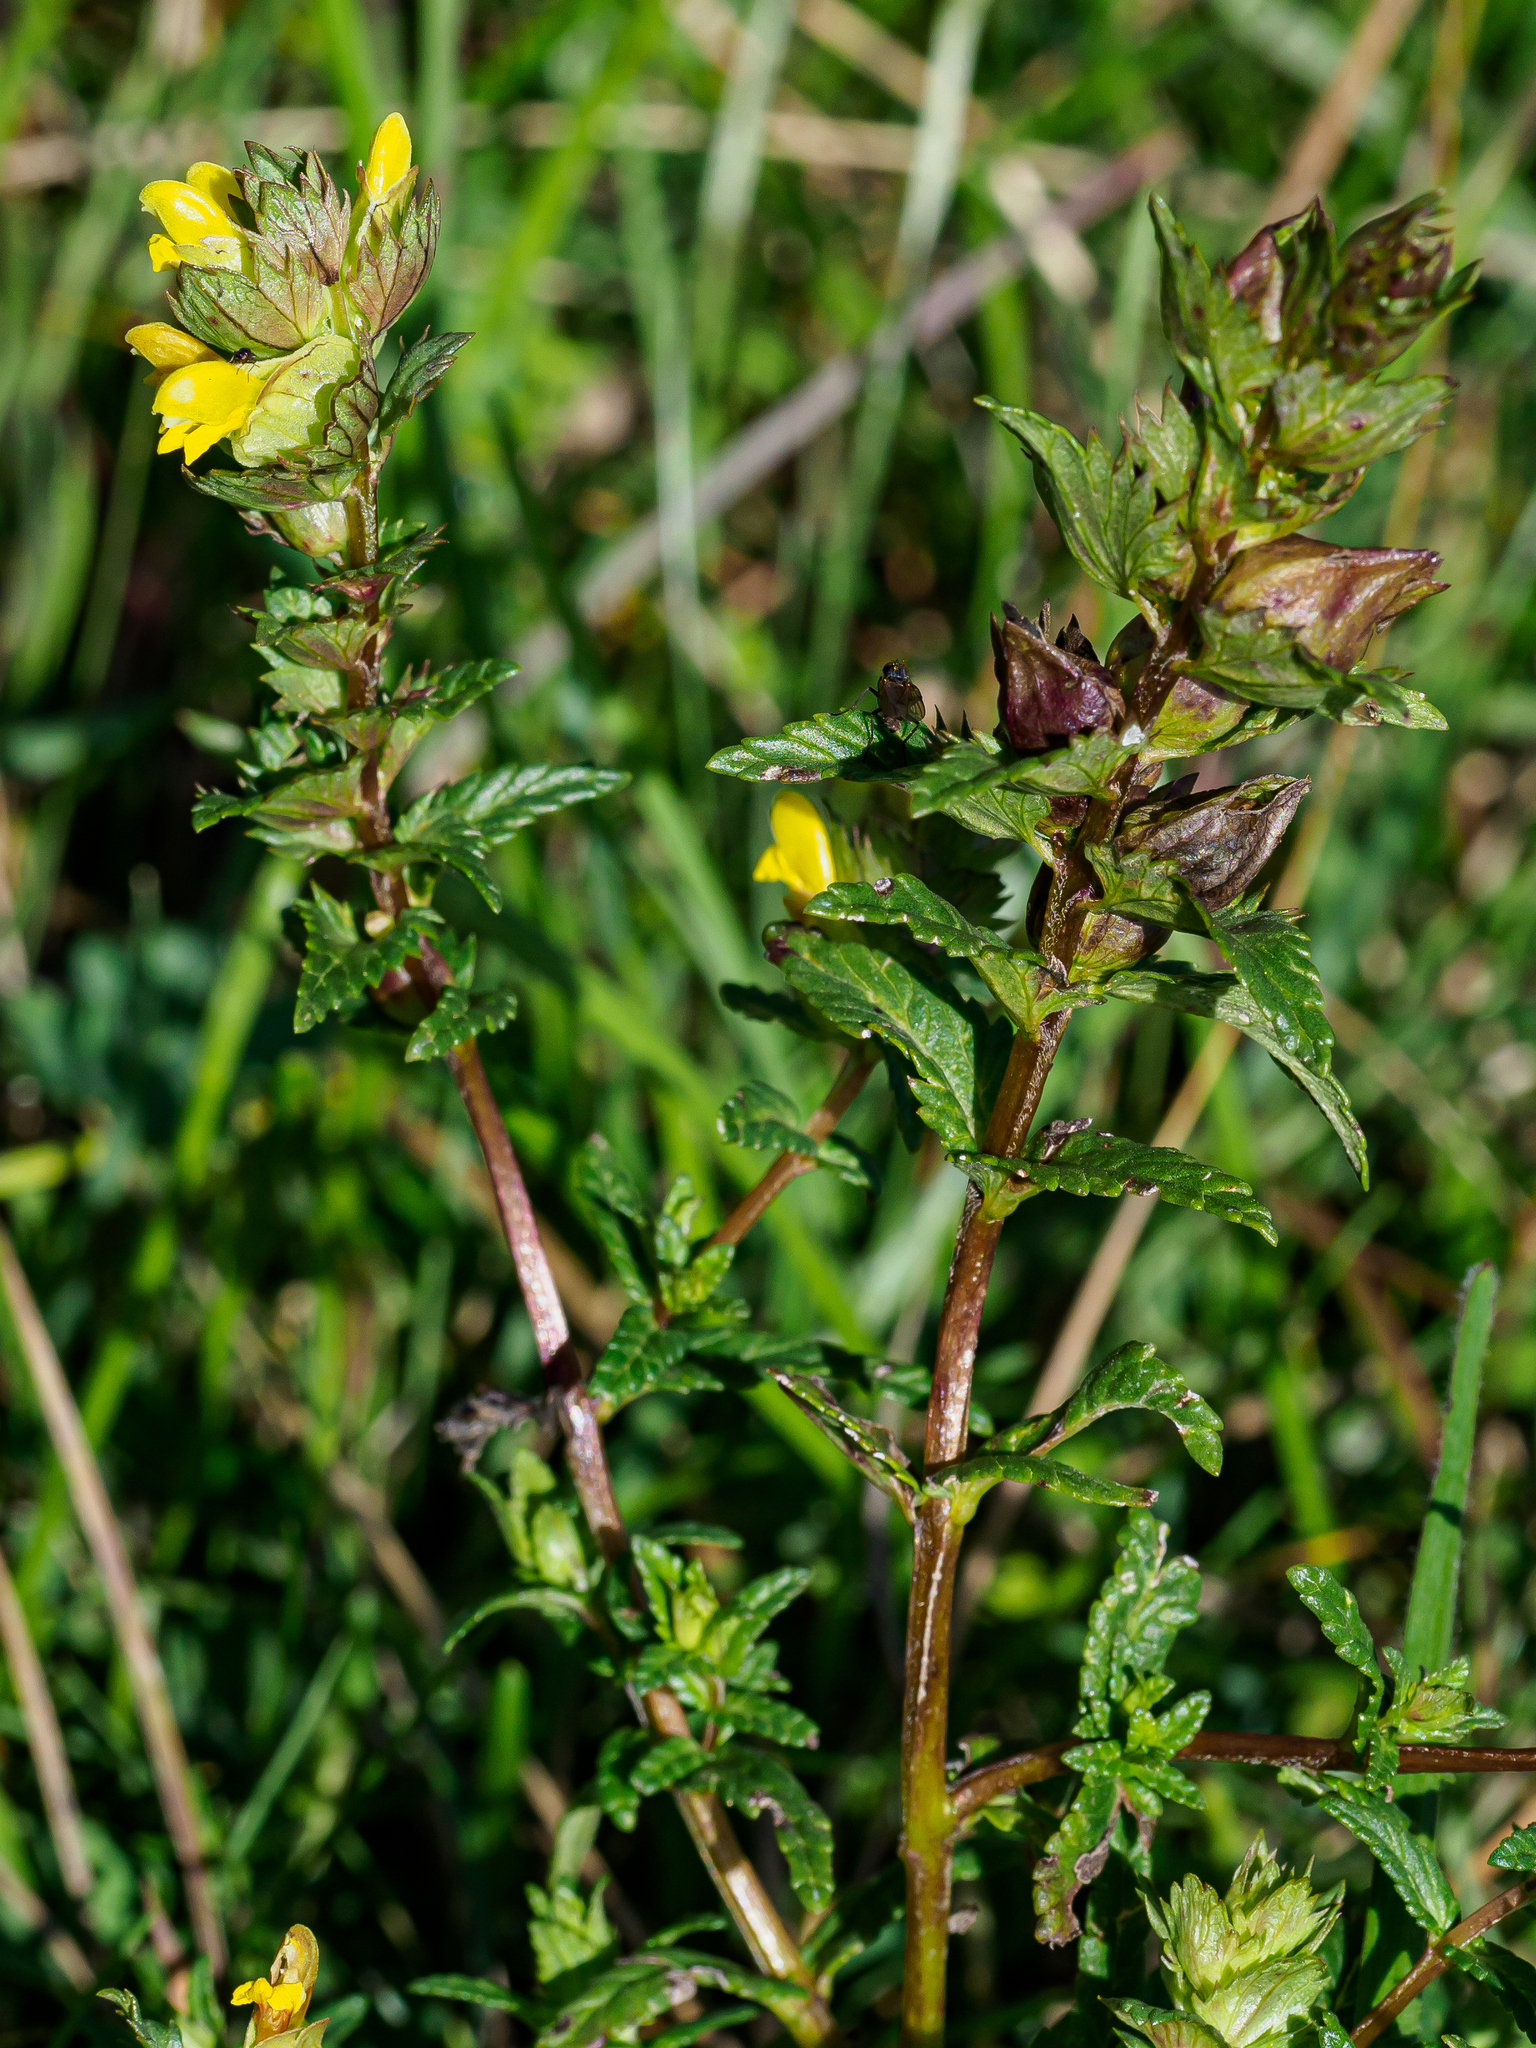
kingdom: Plantae
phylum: Tracheophyta
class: Magnoliopsida
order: Lamiales
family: Orobanchaceae
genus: Rhinanthus
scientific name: Rhinanthus minor
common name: Yellow-rattle
